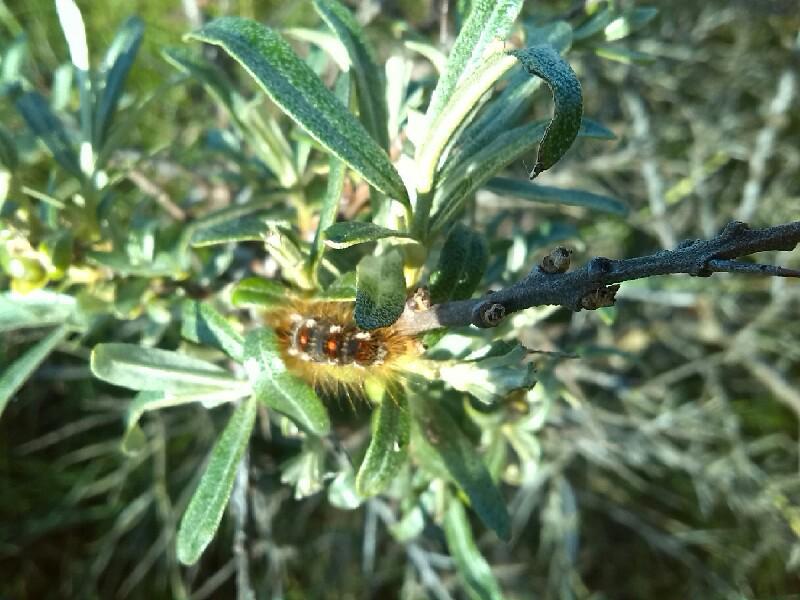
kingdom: Animalia
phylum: Arthropoda
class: Insecta
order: Lepidoptera
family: Erebidae
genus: Euproctis
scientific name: Euproctis chrysorrhoea
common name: Brown-tail
